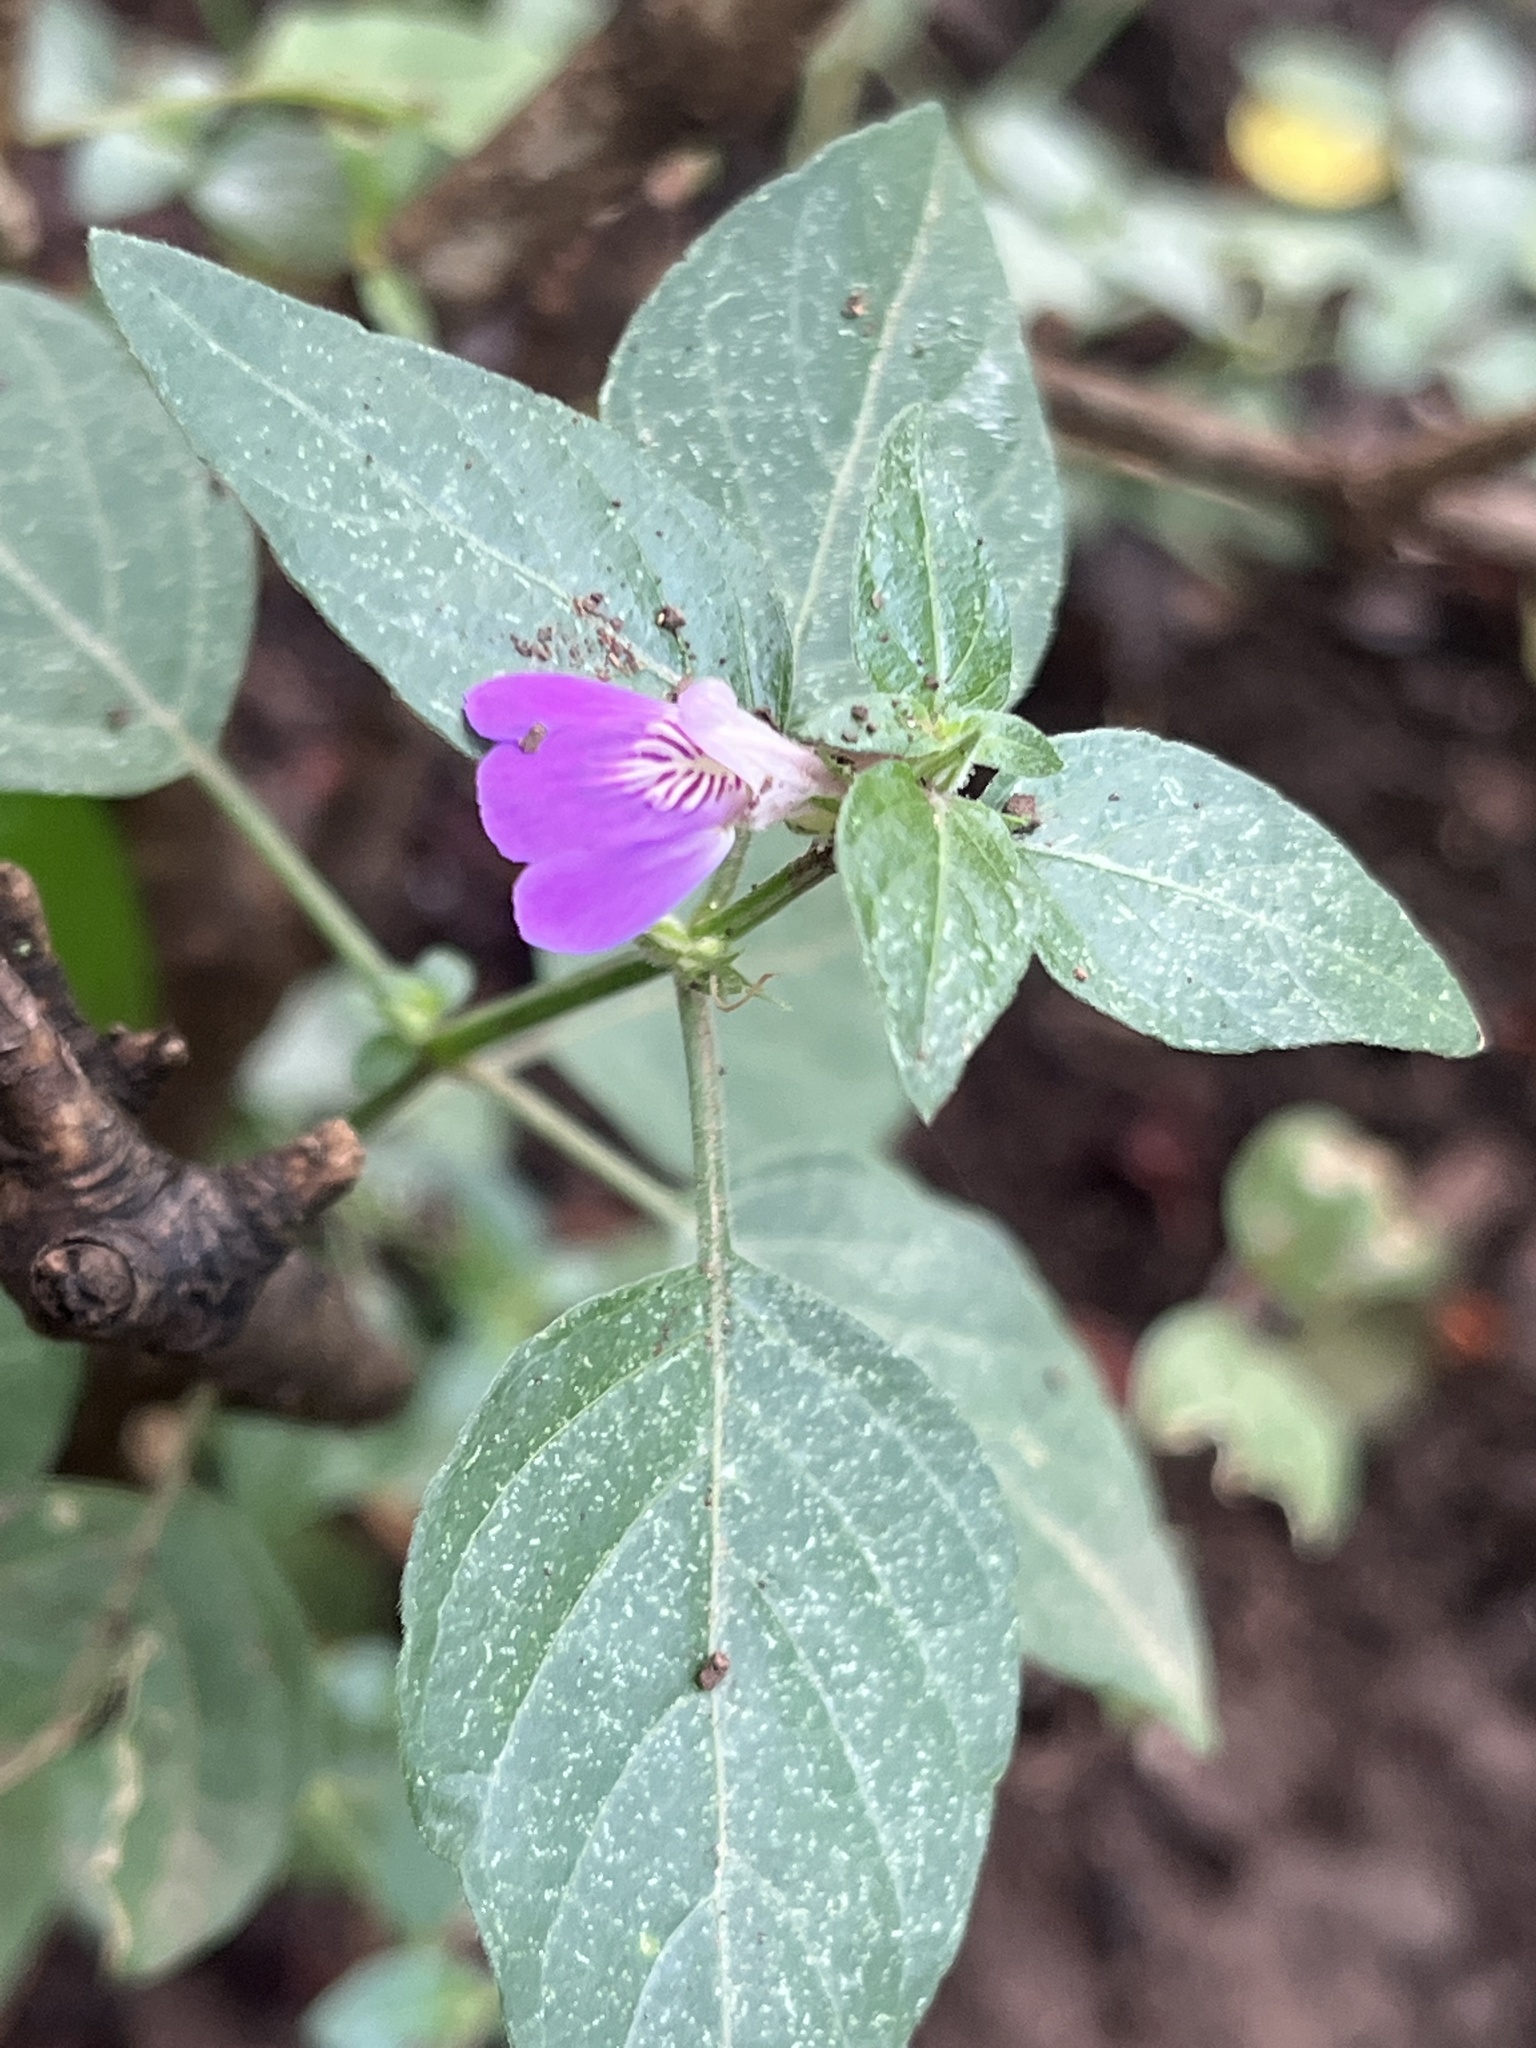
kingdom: Plantae
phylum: Tracheophyta
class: Magnoliopsida
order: Lamiales
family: Acanthaceae
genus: Justicia
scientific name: Justicia diclipteroides
